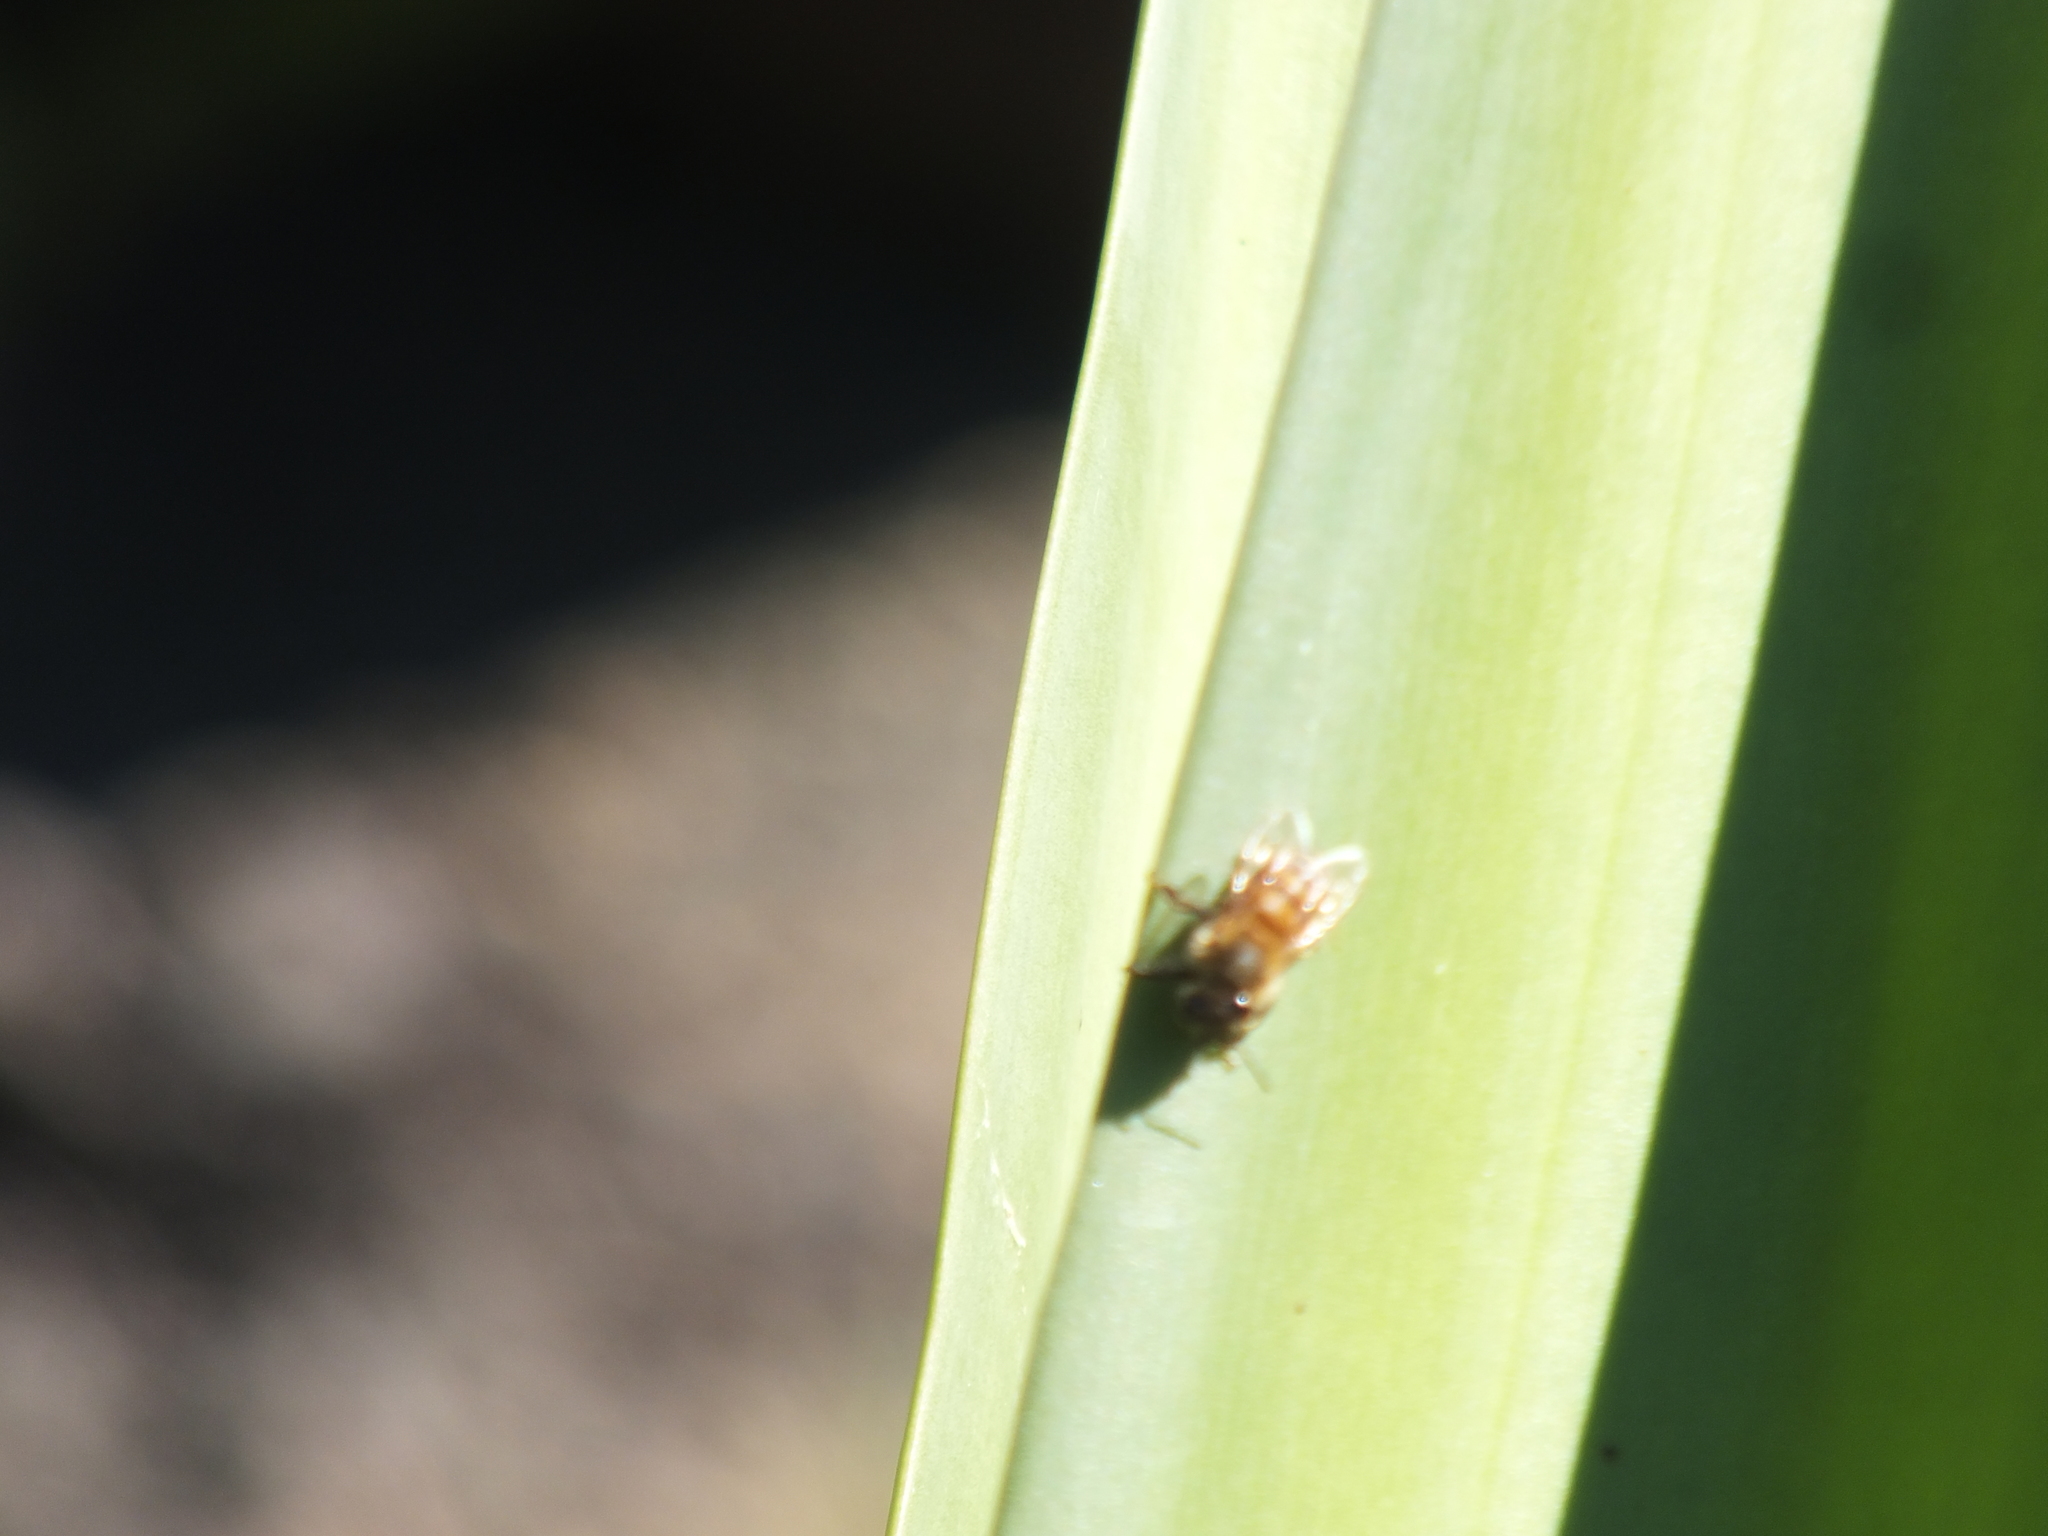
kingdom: Animalia
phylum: Arthropoda
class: Insecta
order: Hymenoptera
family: Apidae
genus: Apis
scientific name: Apis mellifera
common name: Honey bee
